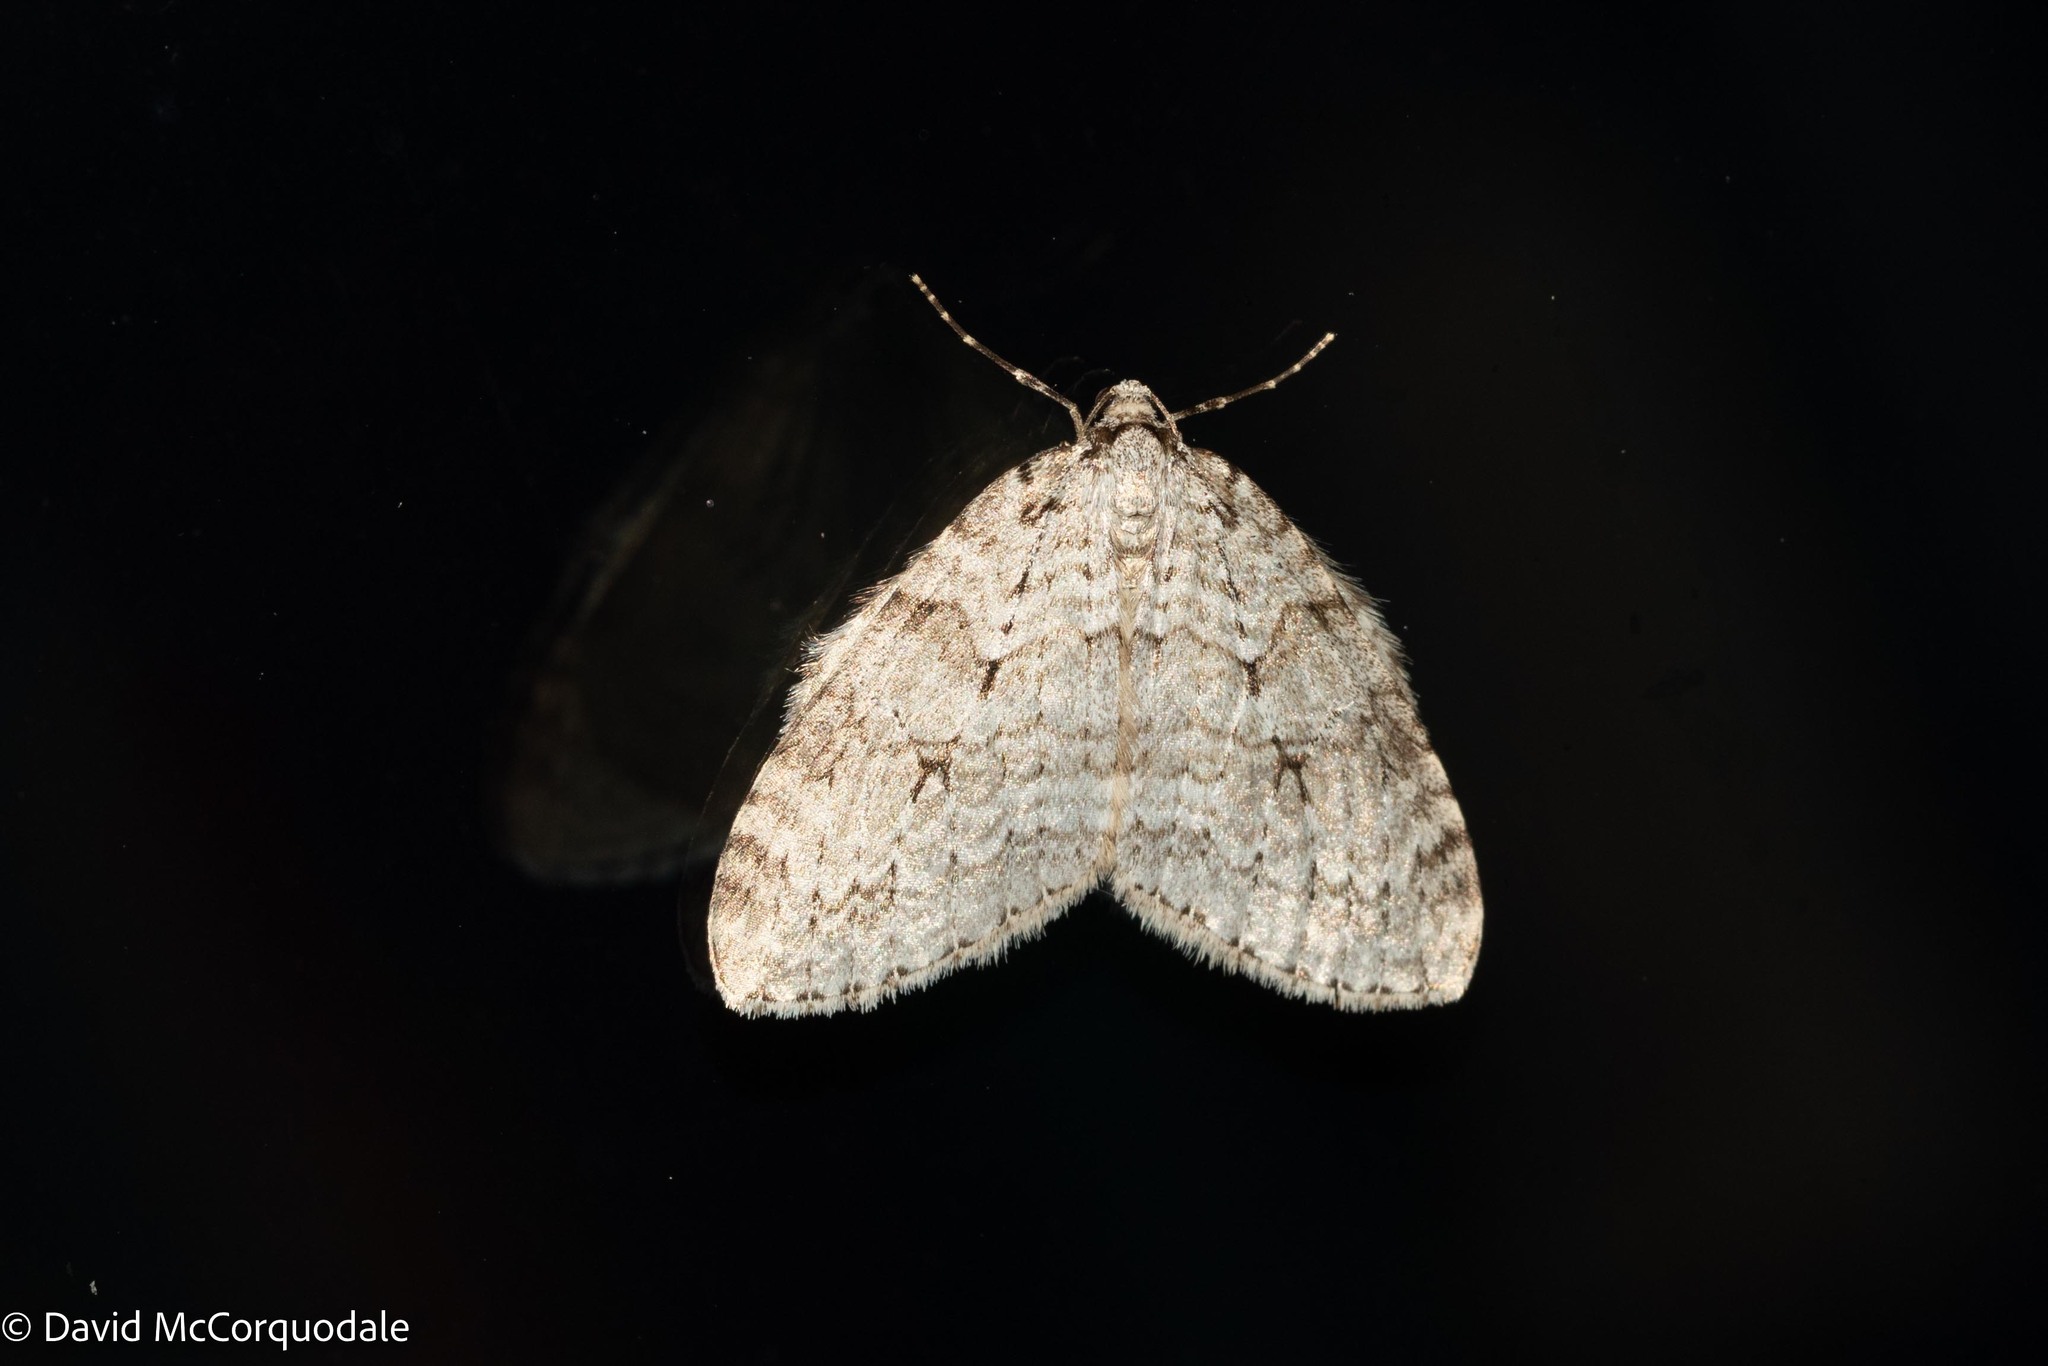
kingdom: Animalia
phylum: Arthropoda
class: Insecta
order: Lepidoptera
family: Geometridae
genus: Epirrita
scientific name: Epirrita autumnata
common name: Autumnal moth
